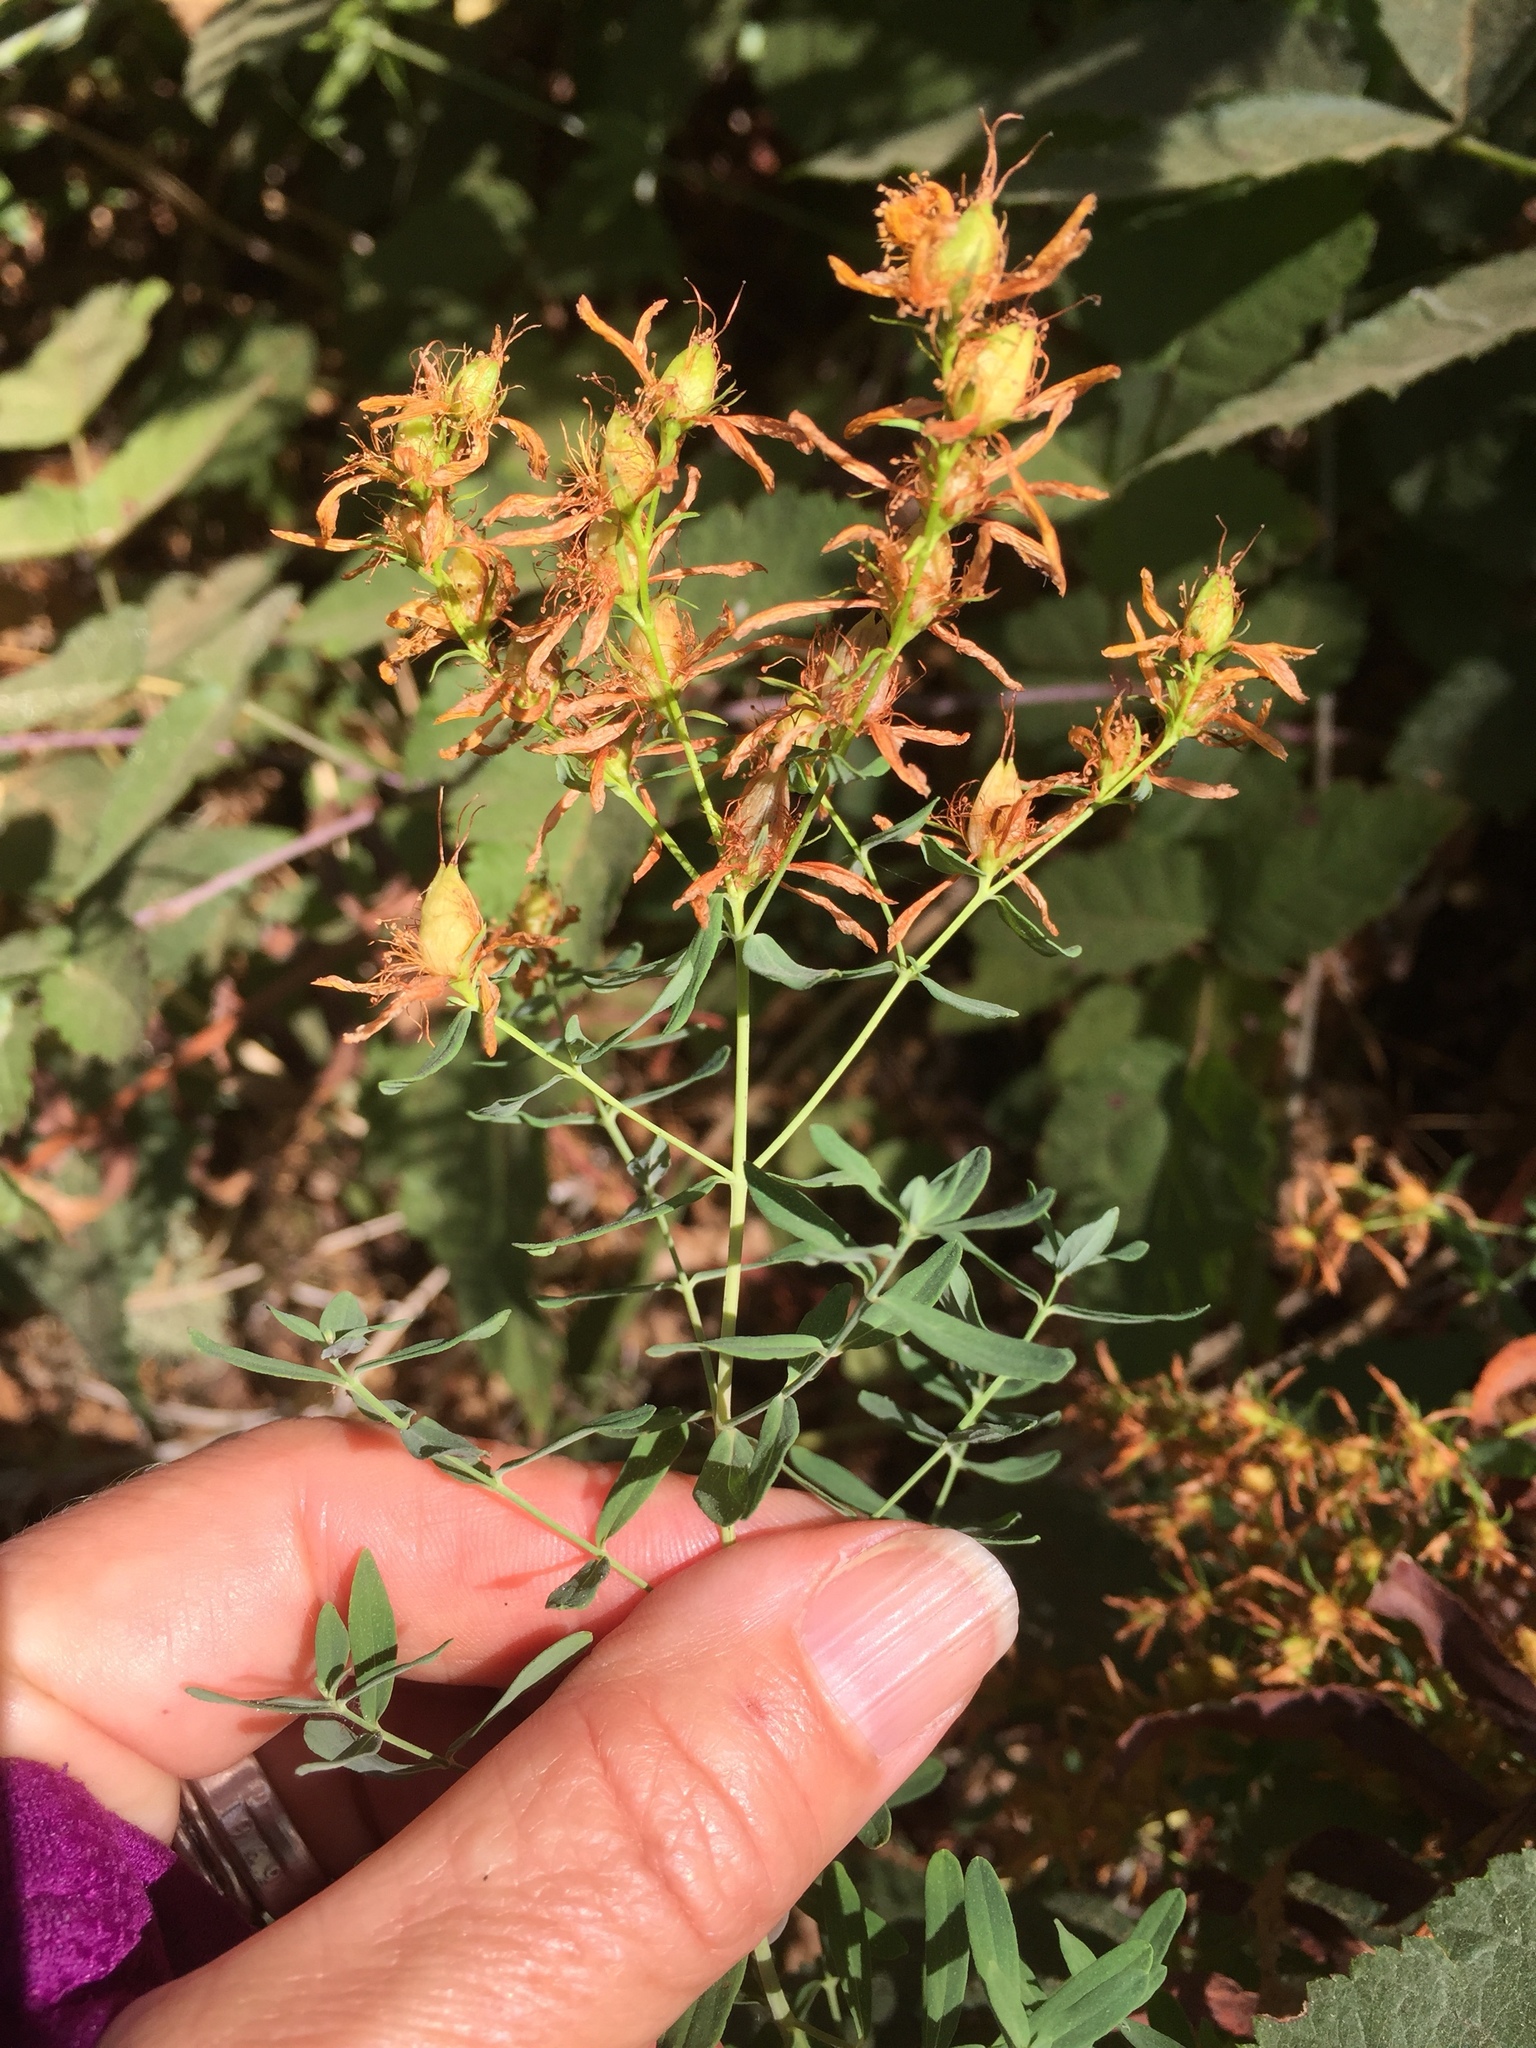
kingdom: Plantae
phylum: Tracheophyta
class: Magnoliopsida
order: Malpighiales
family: Hypericaceae
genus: Hypericum
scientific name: Hypericum perforatum
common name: Common st. johnswort
